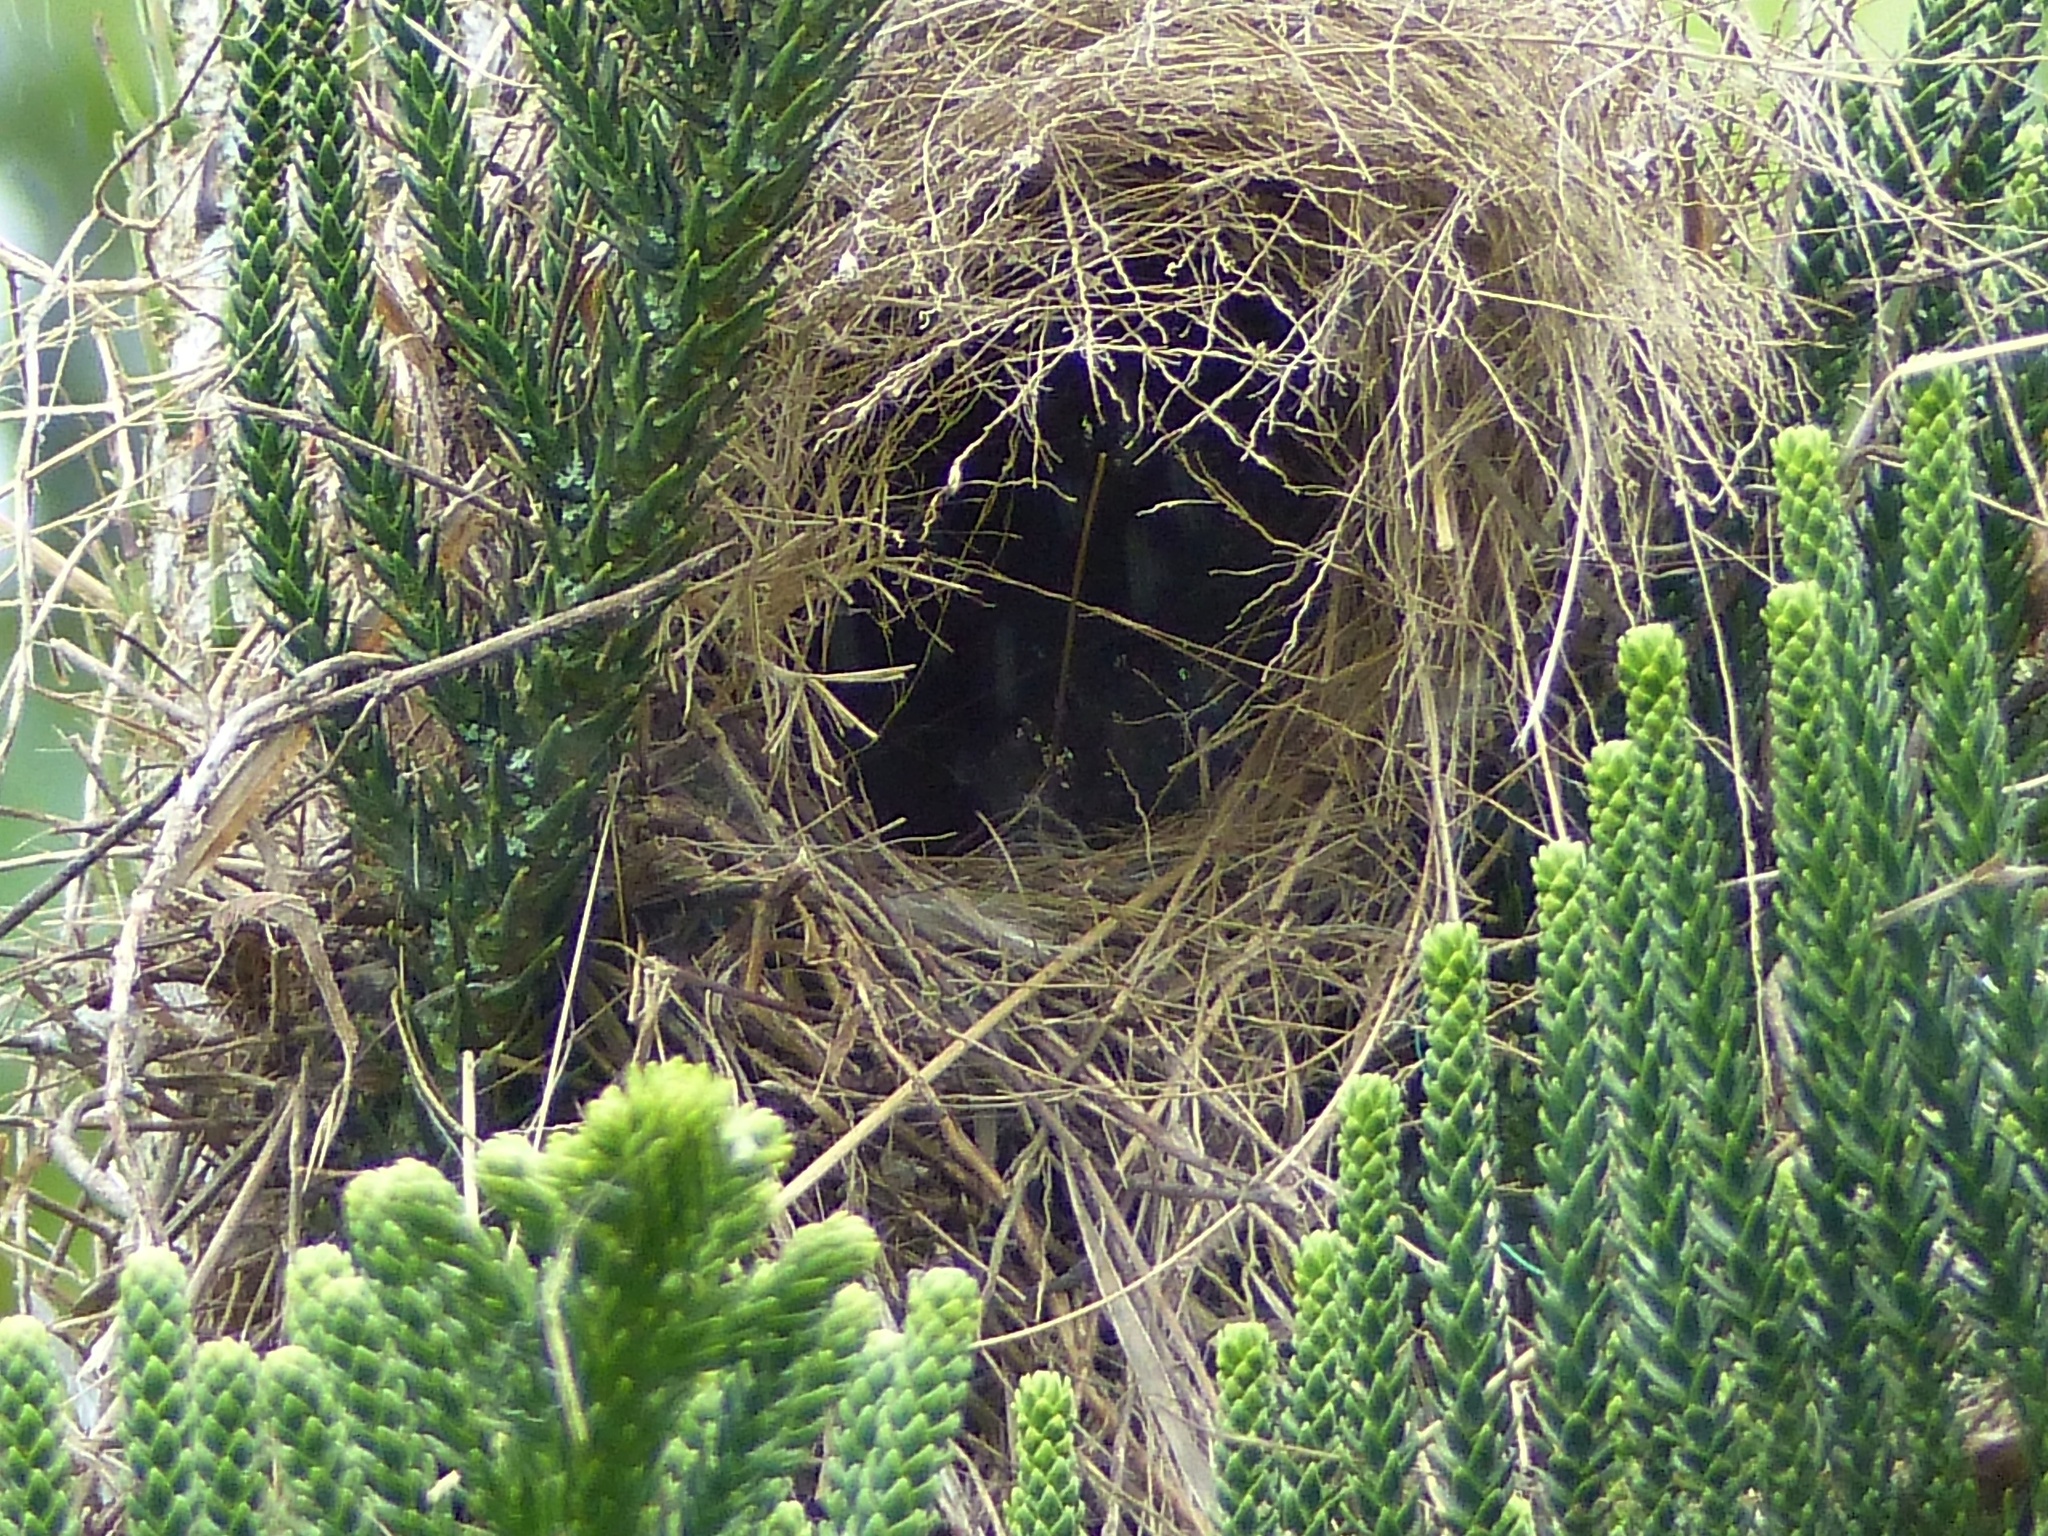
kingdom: Animalia
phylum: Chordata
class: Aves
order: Passeriformes
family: Tyrannidae
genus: Myiozetetes
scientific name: Myiozetetes similis
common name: Social flycatcher
